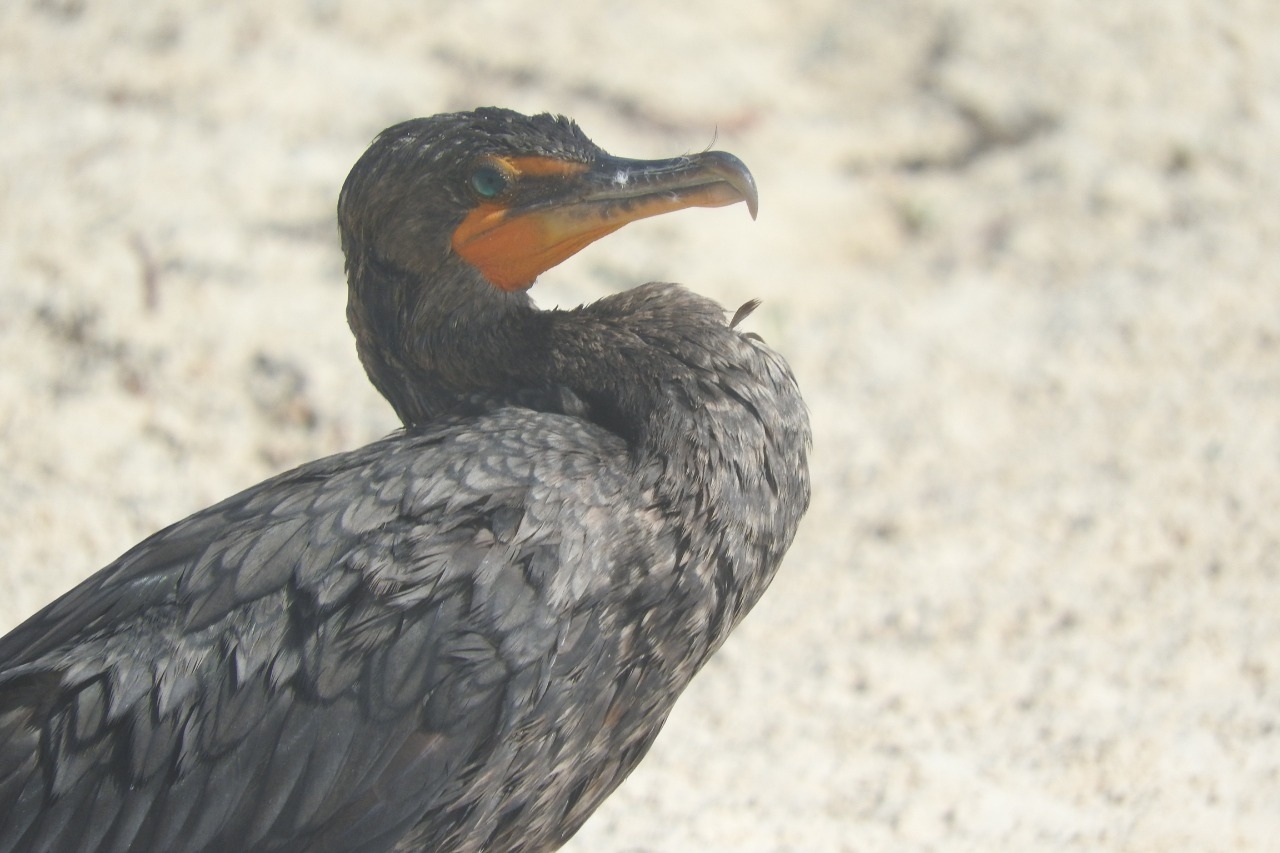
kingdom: Animalia
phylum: Chordata
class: Aves
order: Suliformes
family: Phalacrocoracidae
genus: Phalacrocorax
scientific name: Phalacrocorax auritus
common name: Double-crested cormorant
